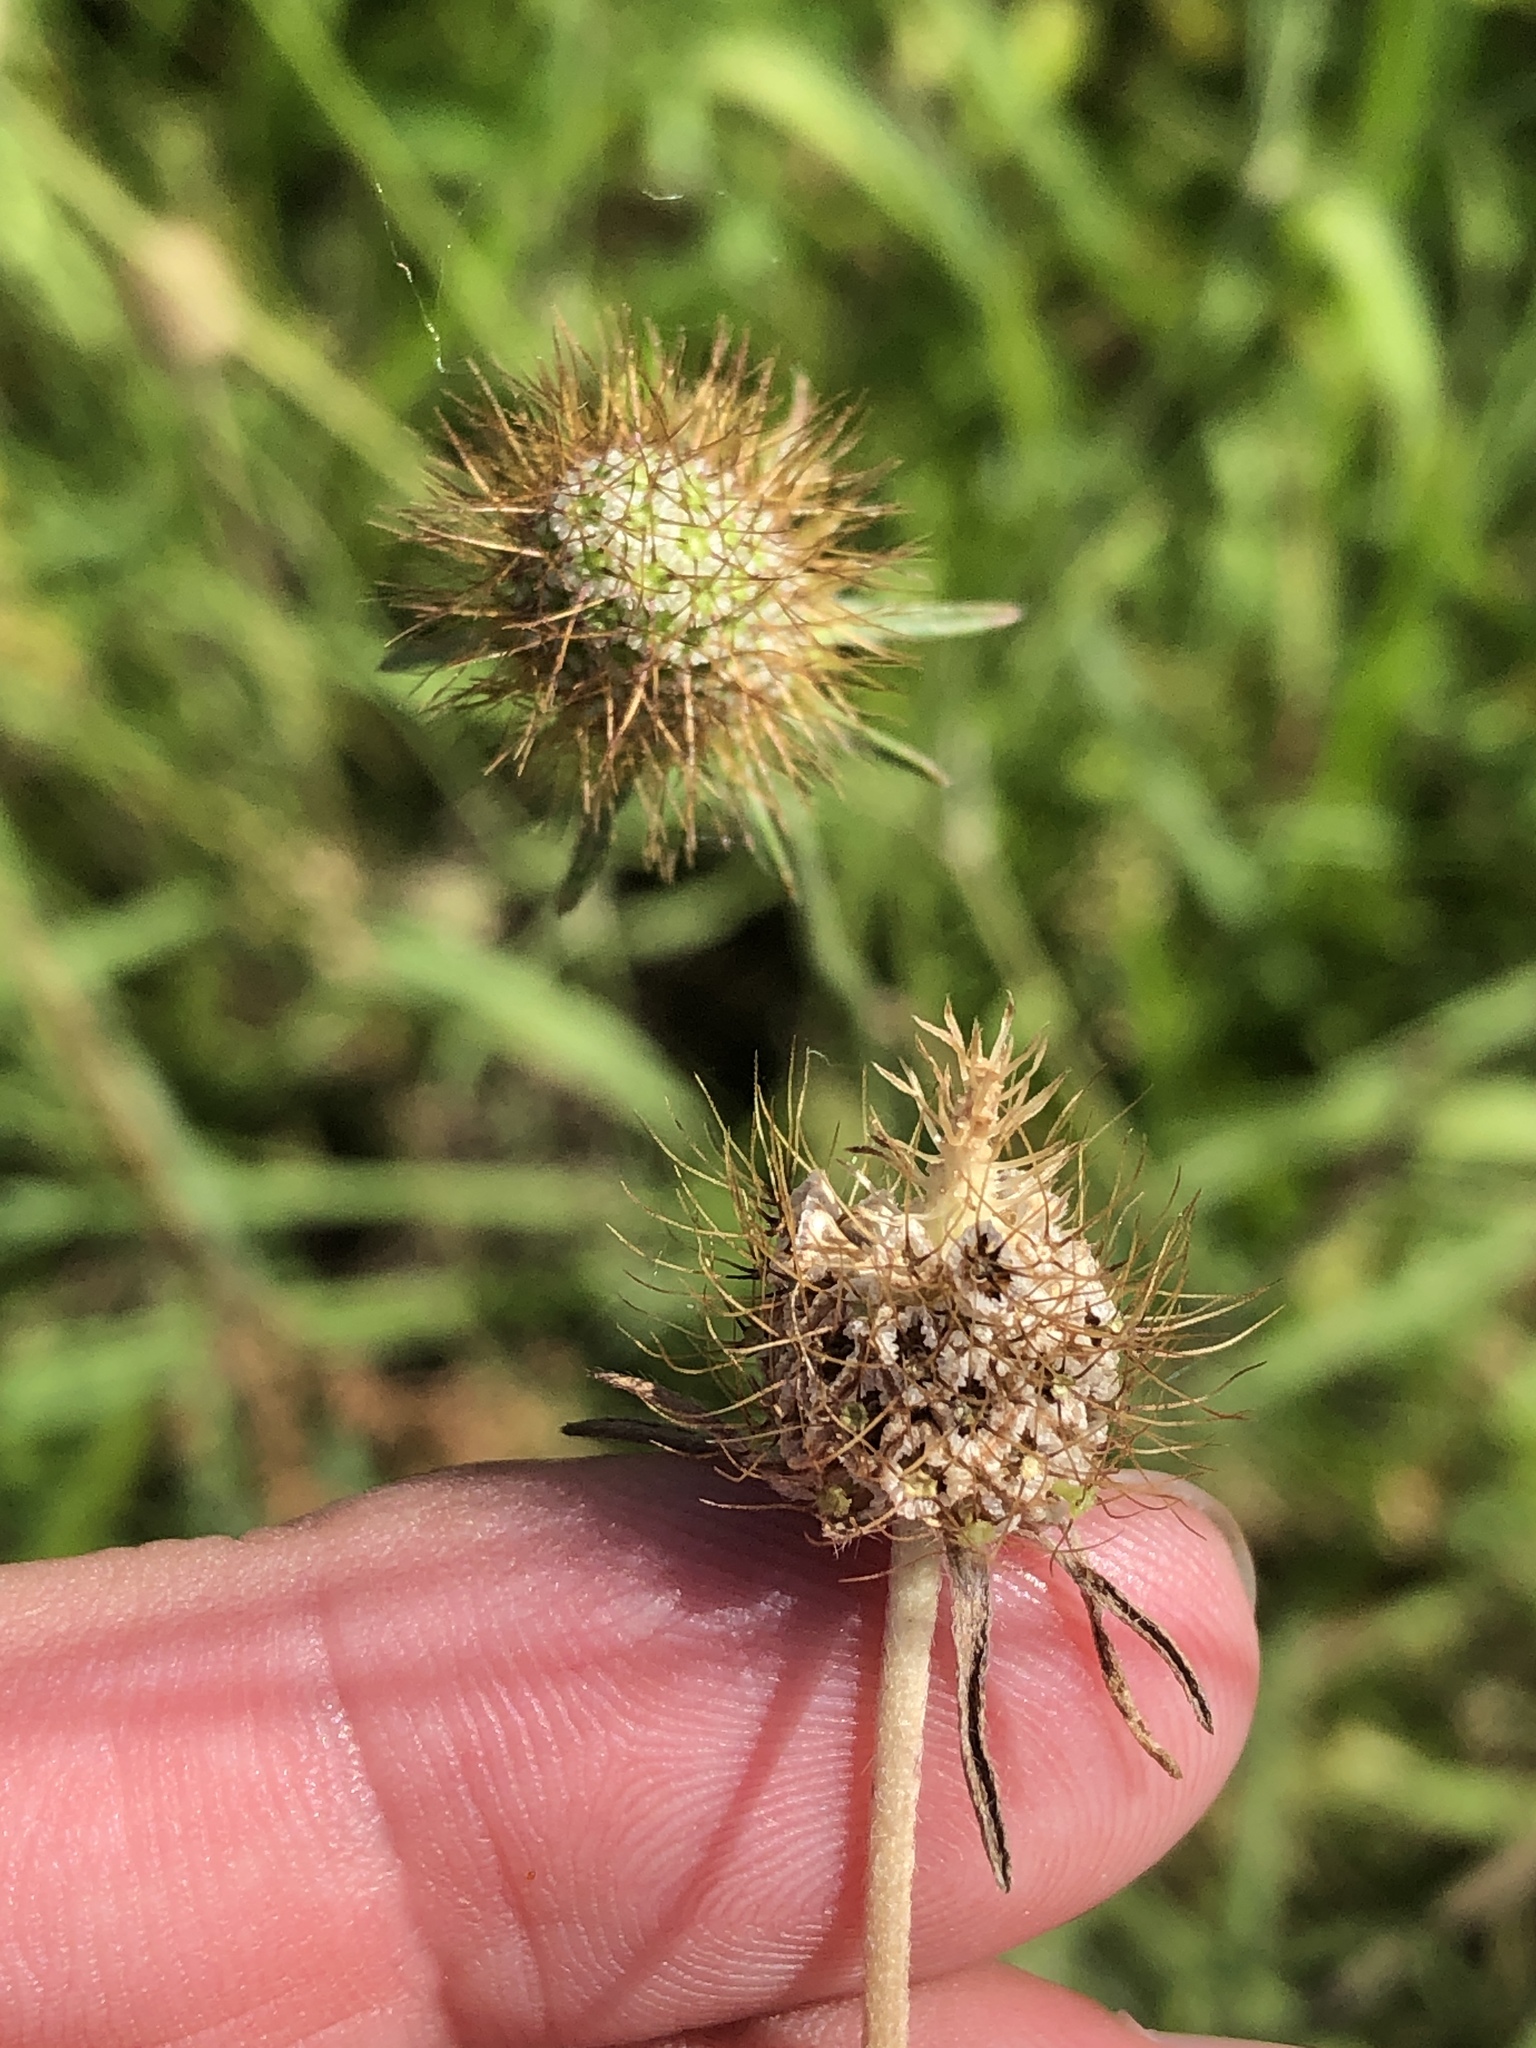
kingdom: Plantae
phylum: Tracheophyta
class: Magnoliopsida
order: Dipsacales
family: Caprifoliaceae
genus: Sixalix
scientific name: Sixalix atropurpurea
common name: Sweet scabious
